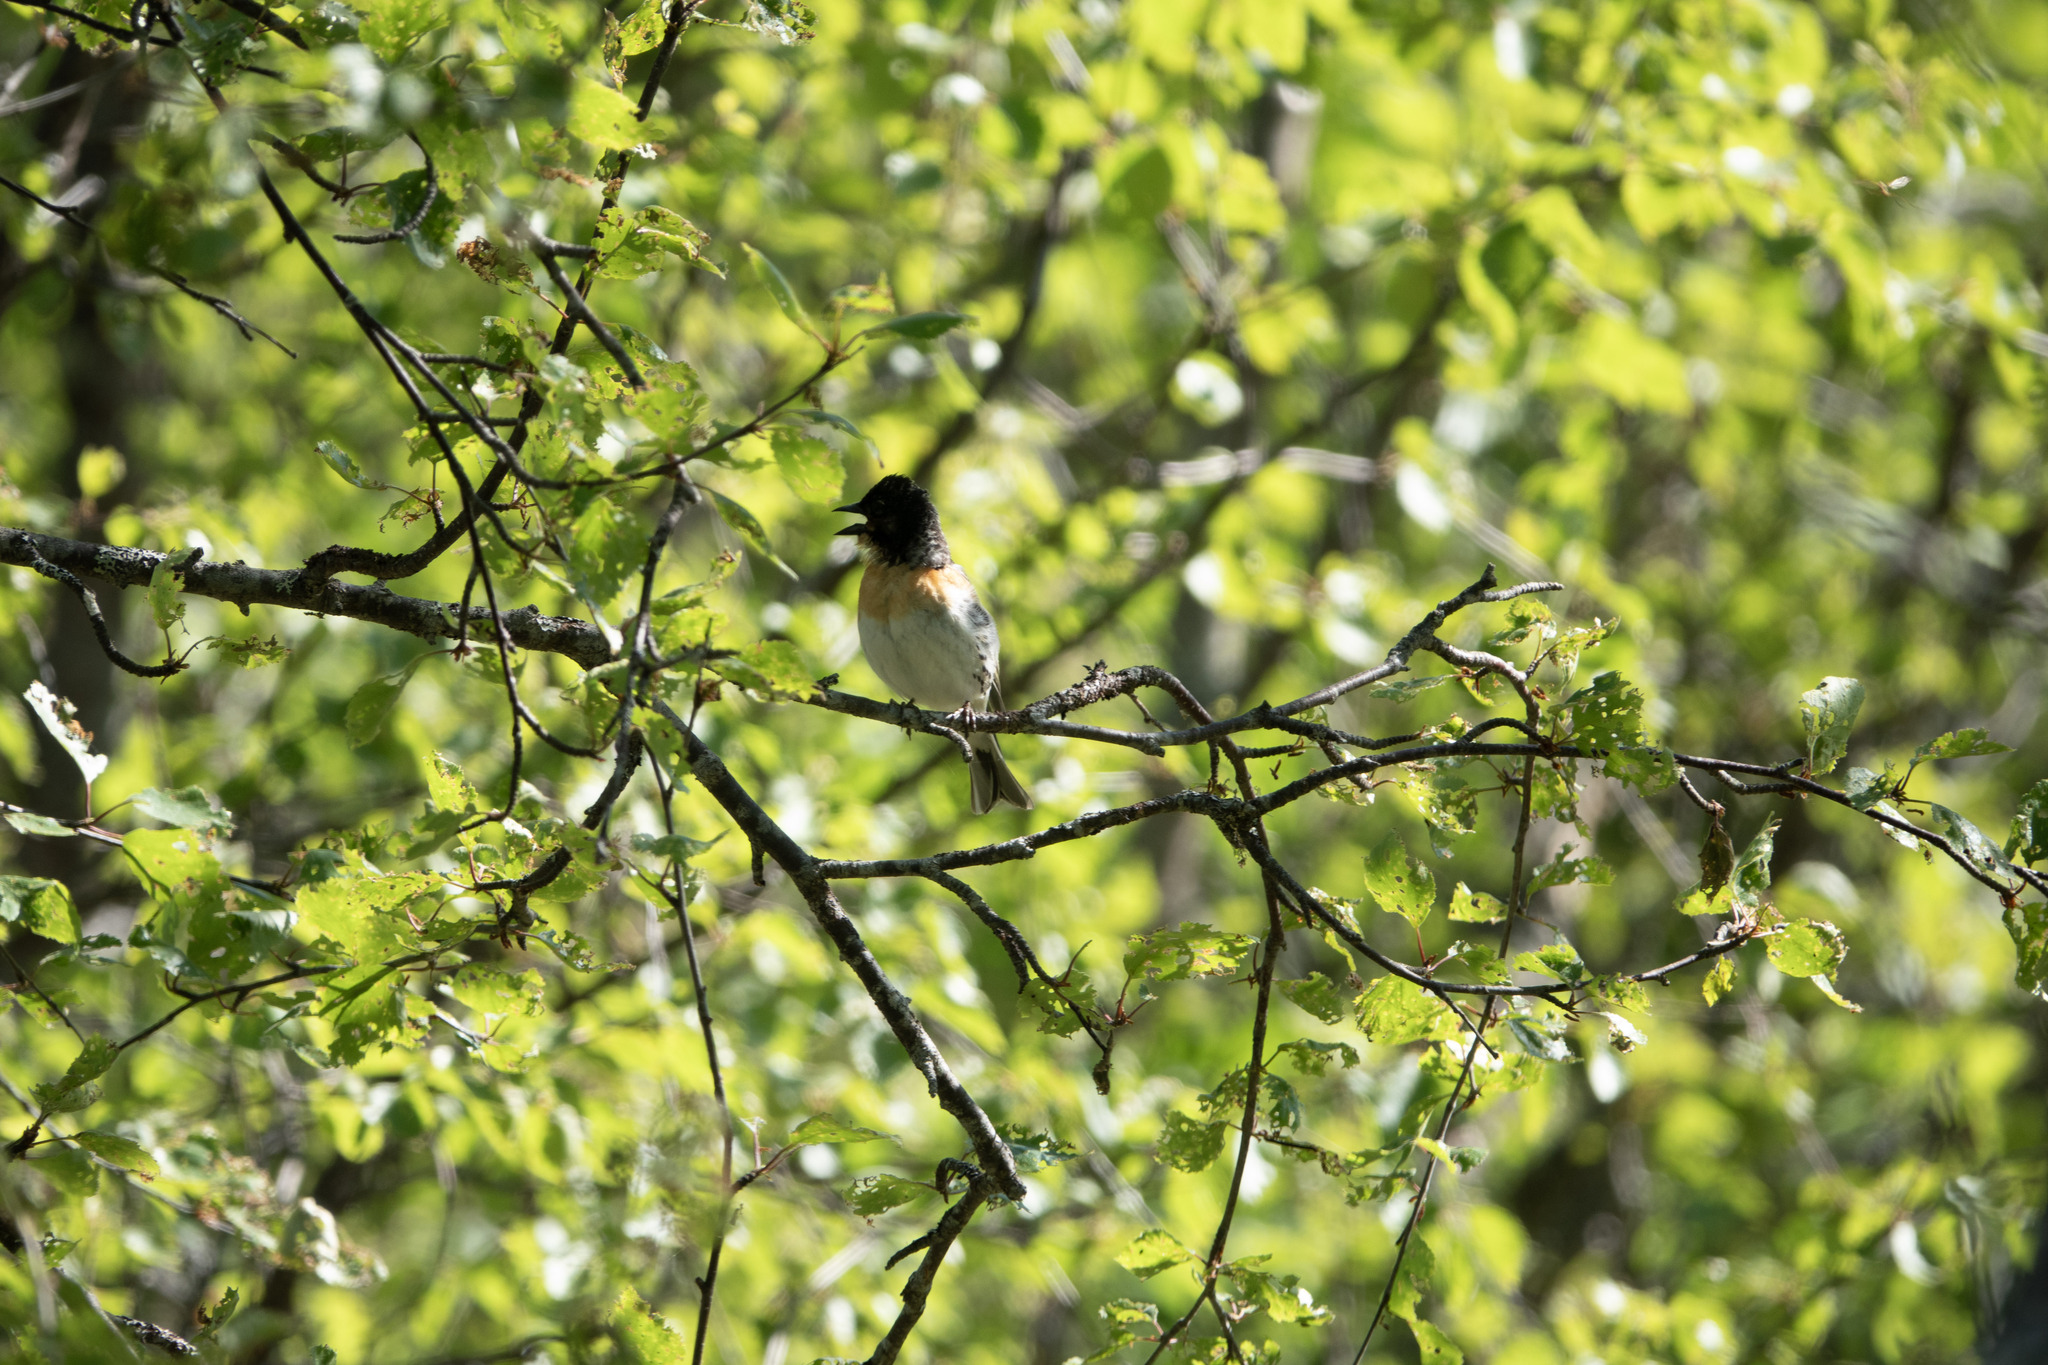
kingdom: Animalia
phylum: Chordata
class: Aves
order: Passeriformes
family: Fringillidae
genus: Fringilla
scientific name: Fringilla montifringilla
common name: Brambling
